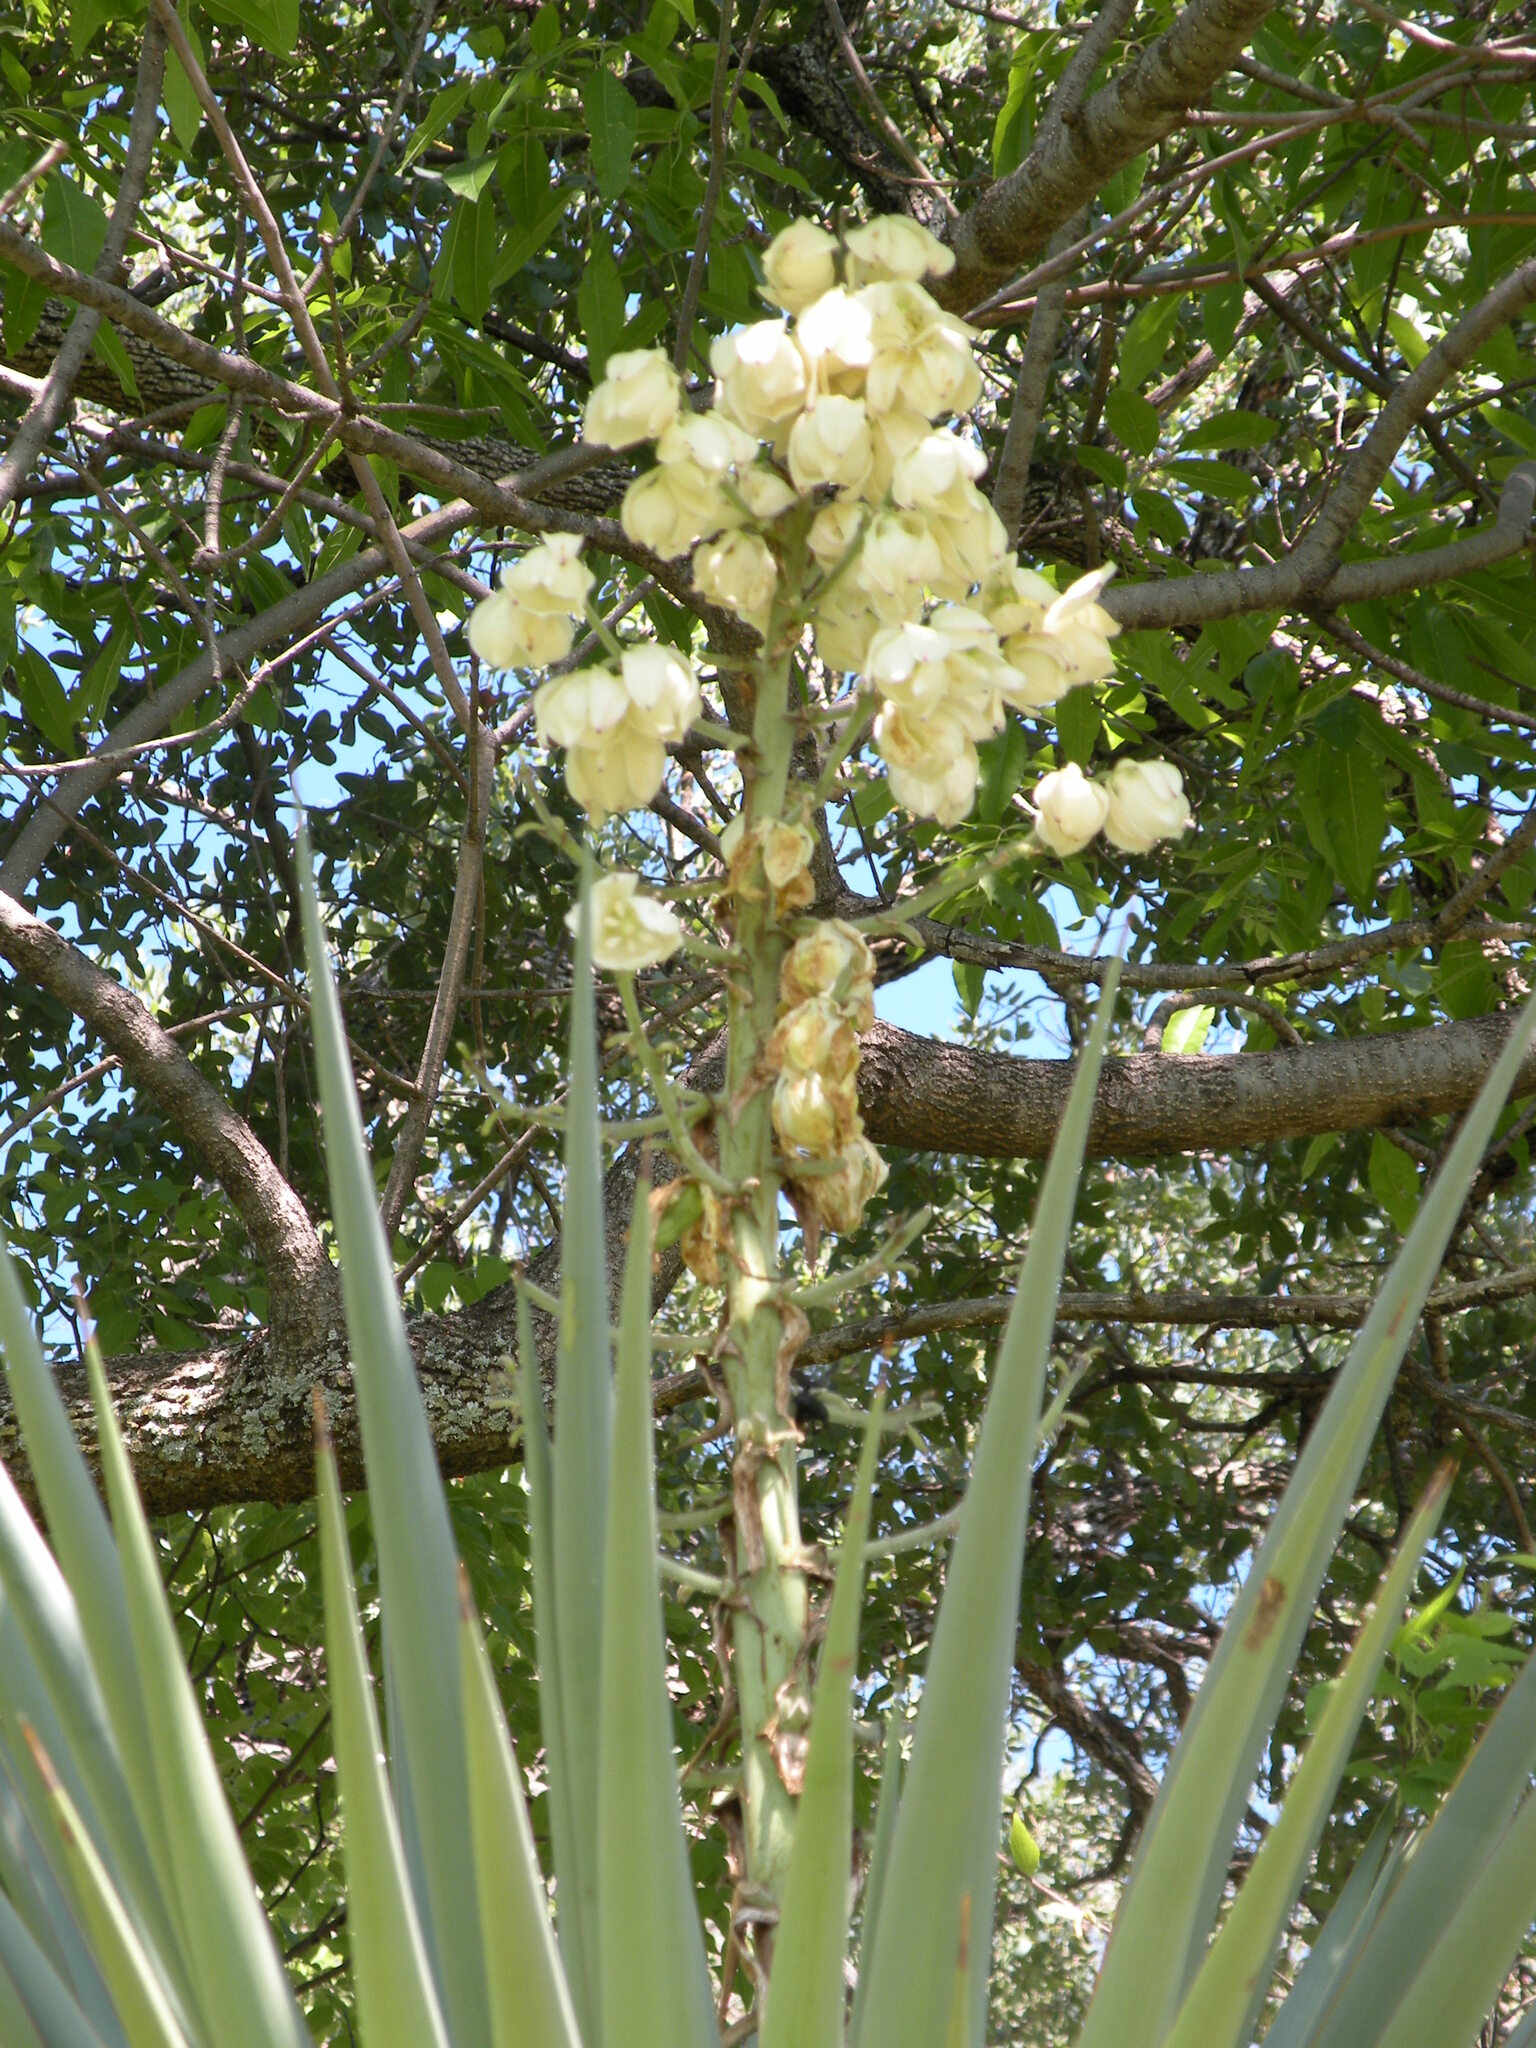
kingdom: Plantae
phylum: Tracheophyta
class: Liliopsida
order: Asparagales
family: Asparagaceae
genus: Yucca
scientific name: Yucca schottii
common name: Hoary yucca
